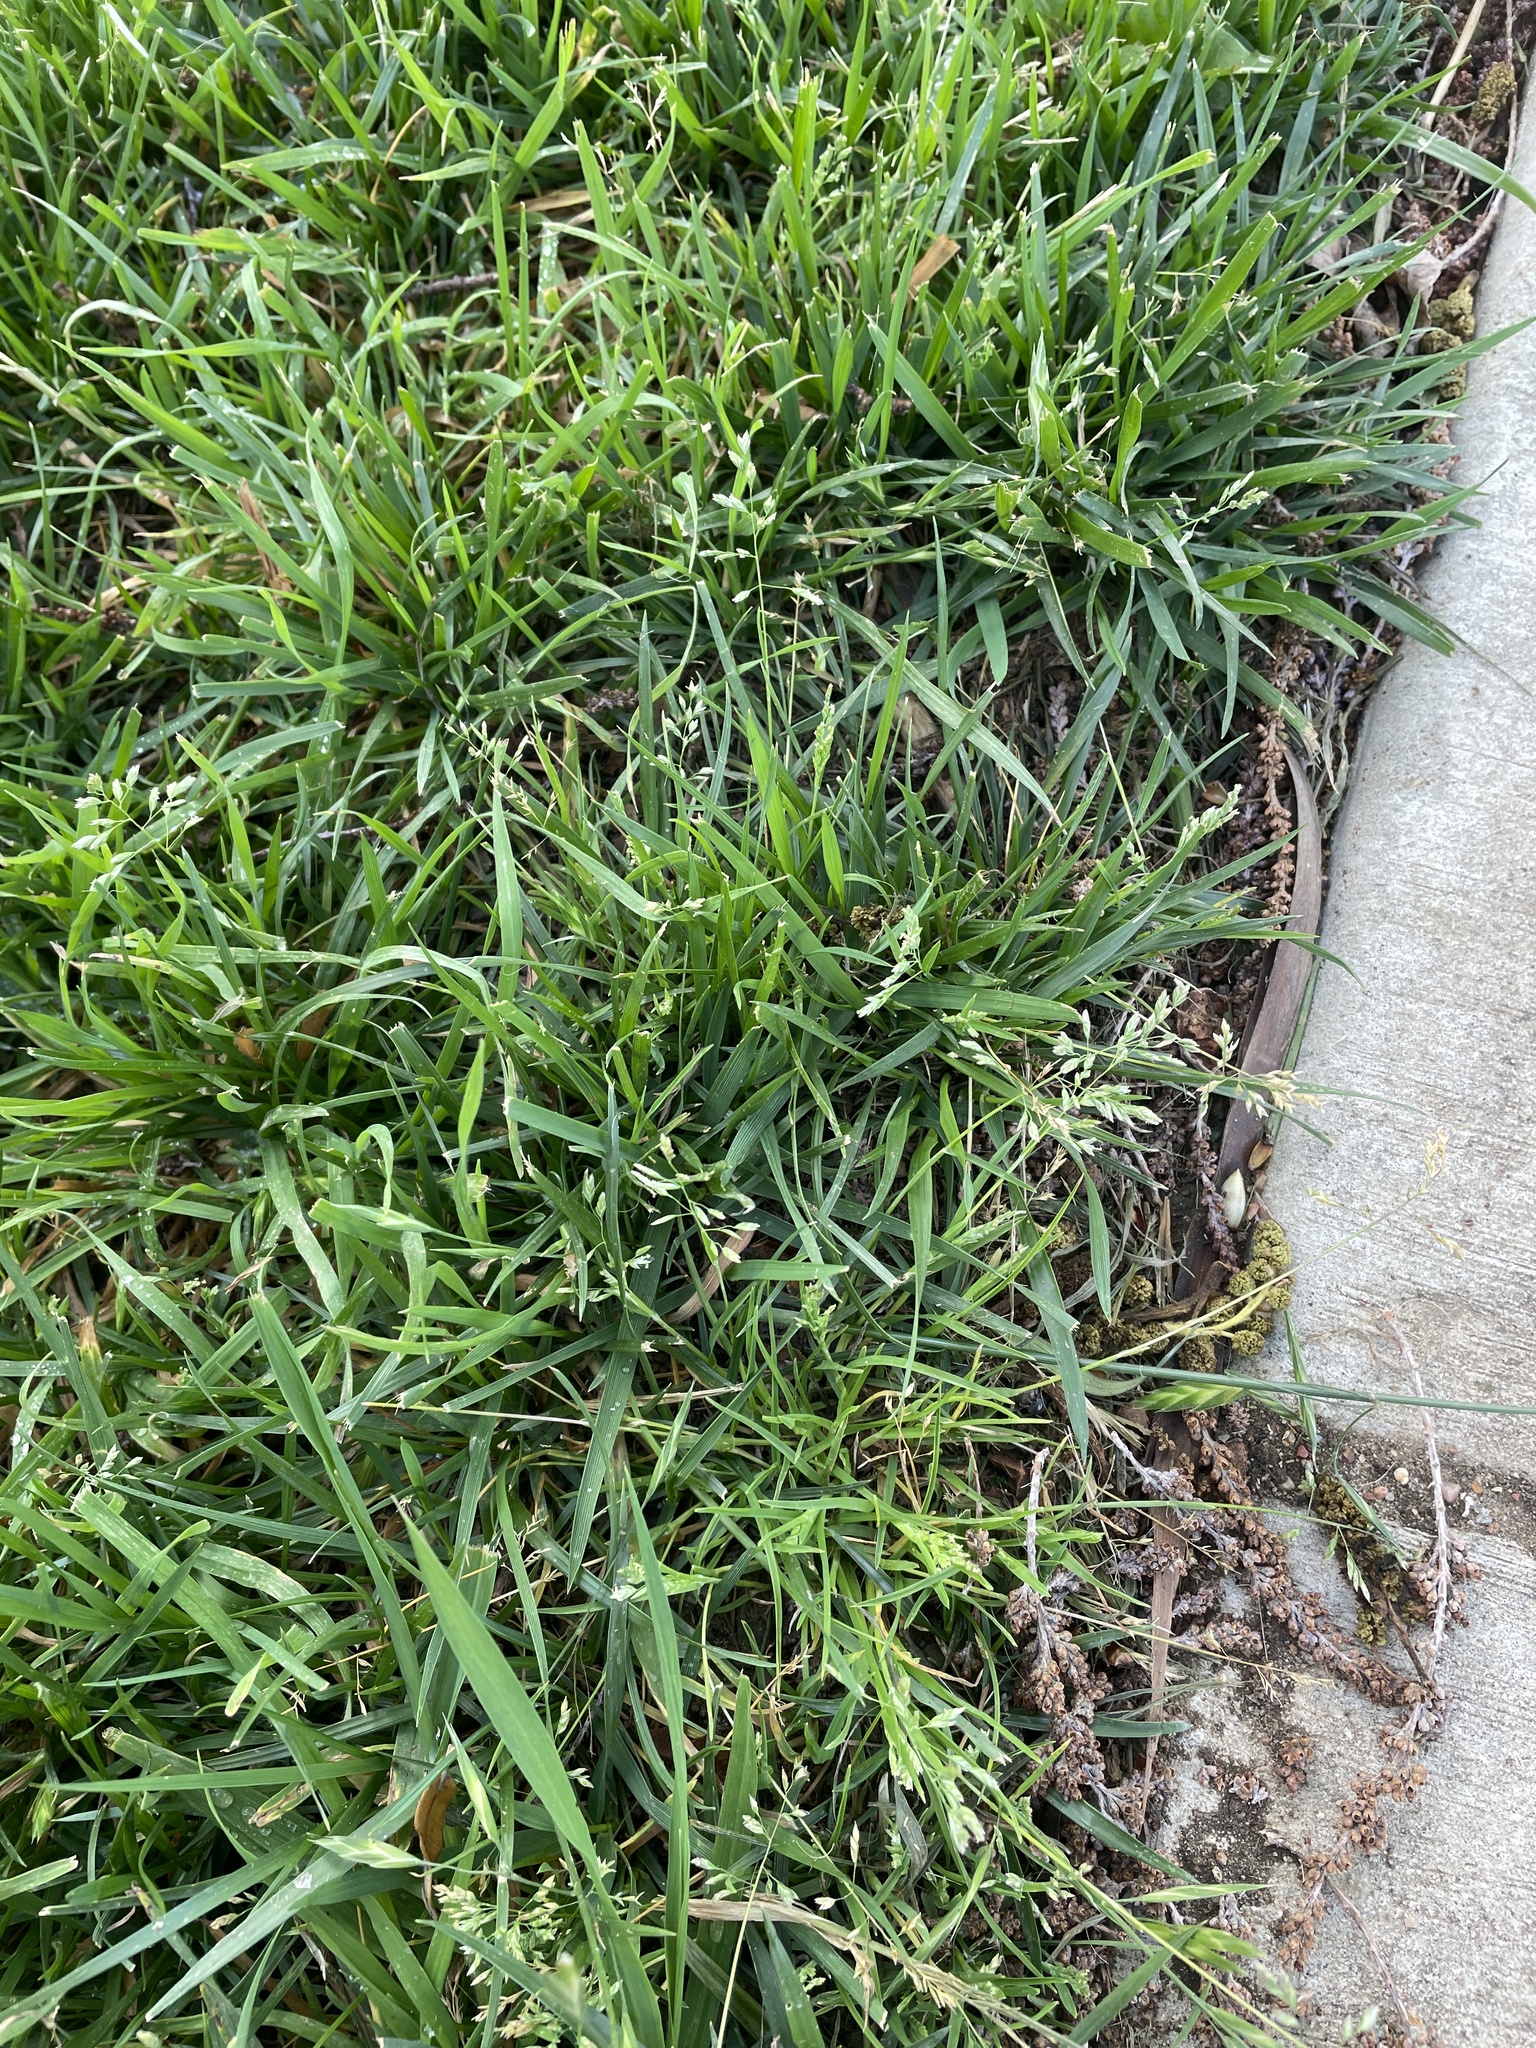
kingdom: Plantae
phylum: Tracheophyta
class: Liliopsida
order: Poales
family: Poaceae
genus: Poa
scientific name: Poa annua
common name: Annual bluegrass
